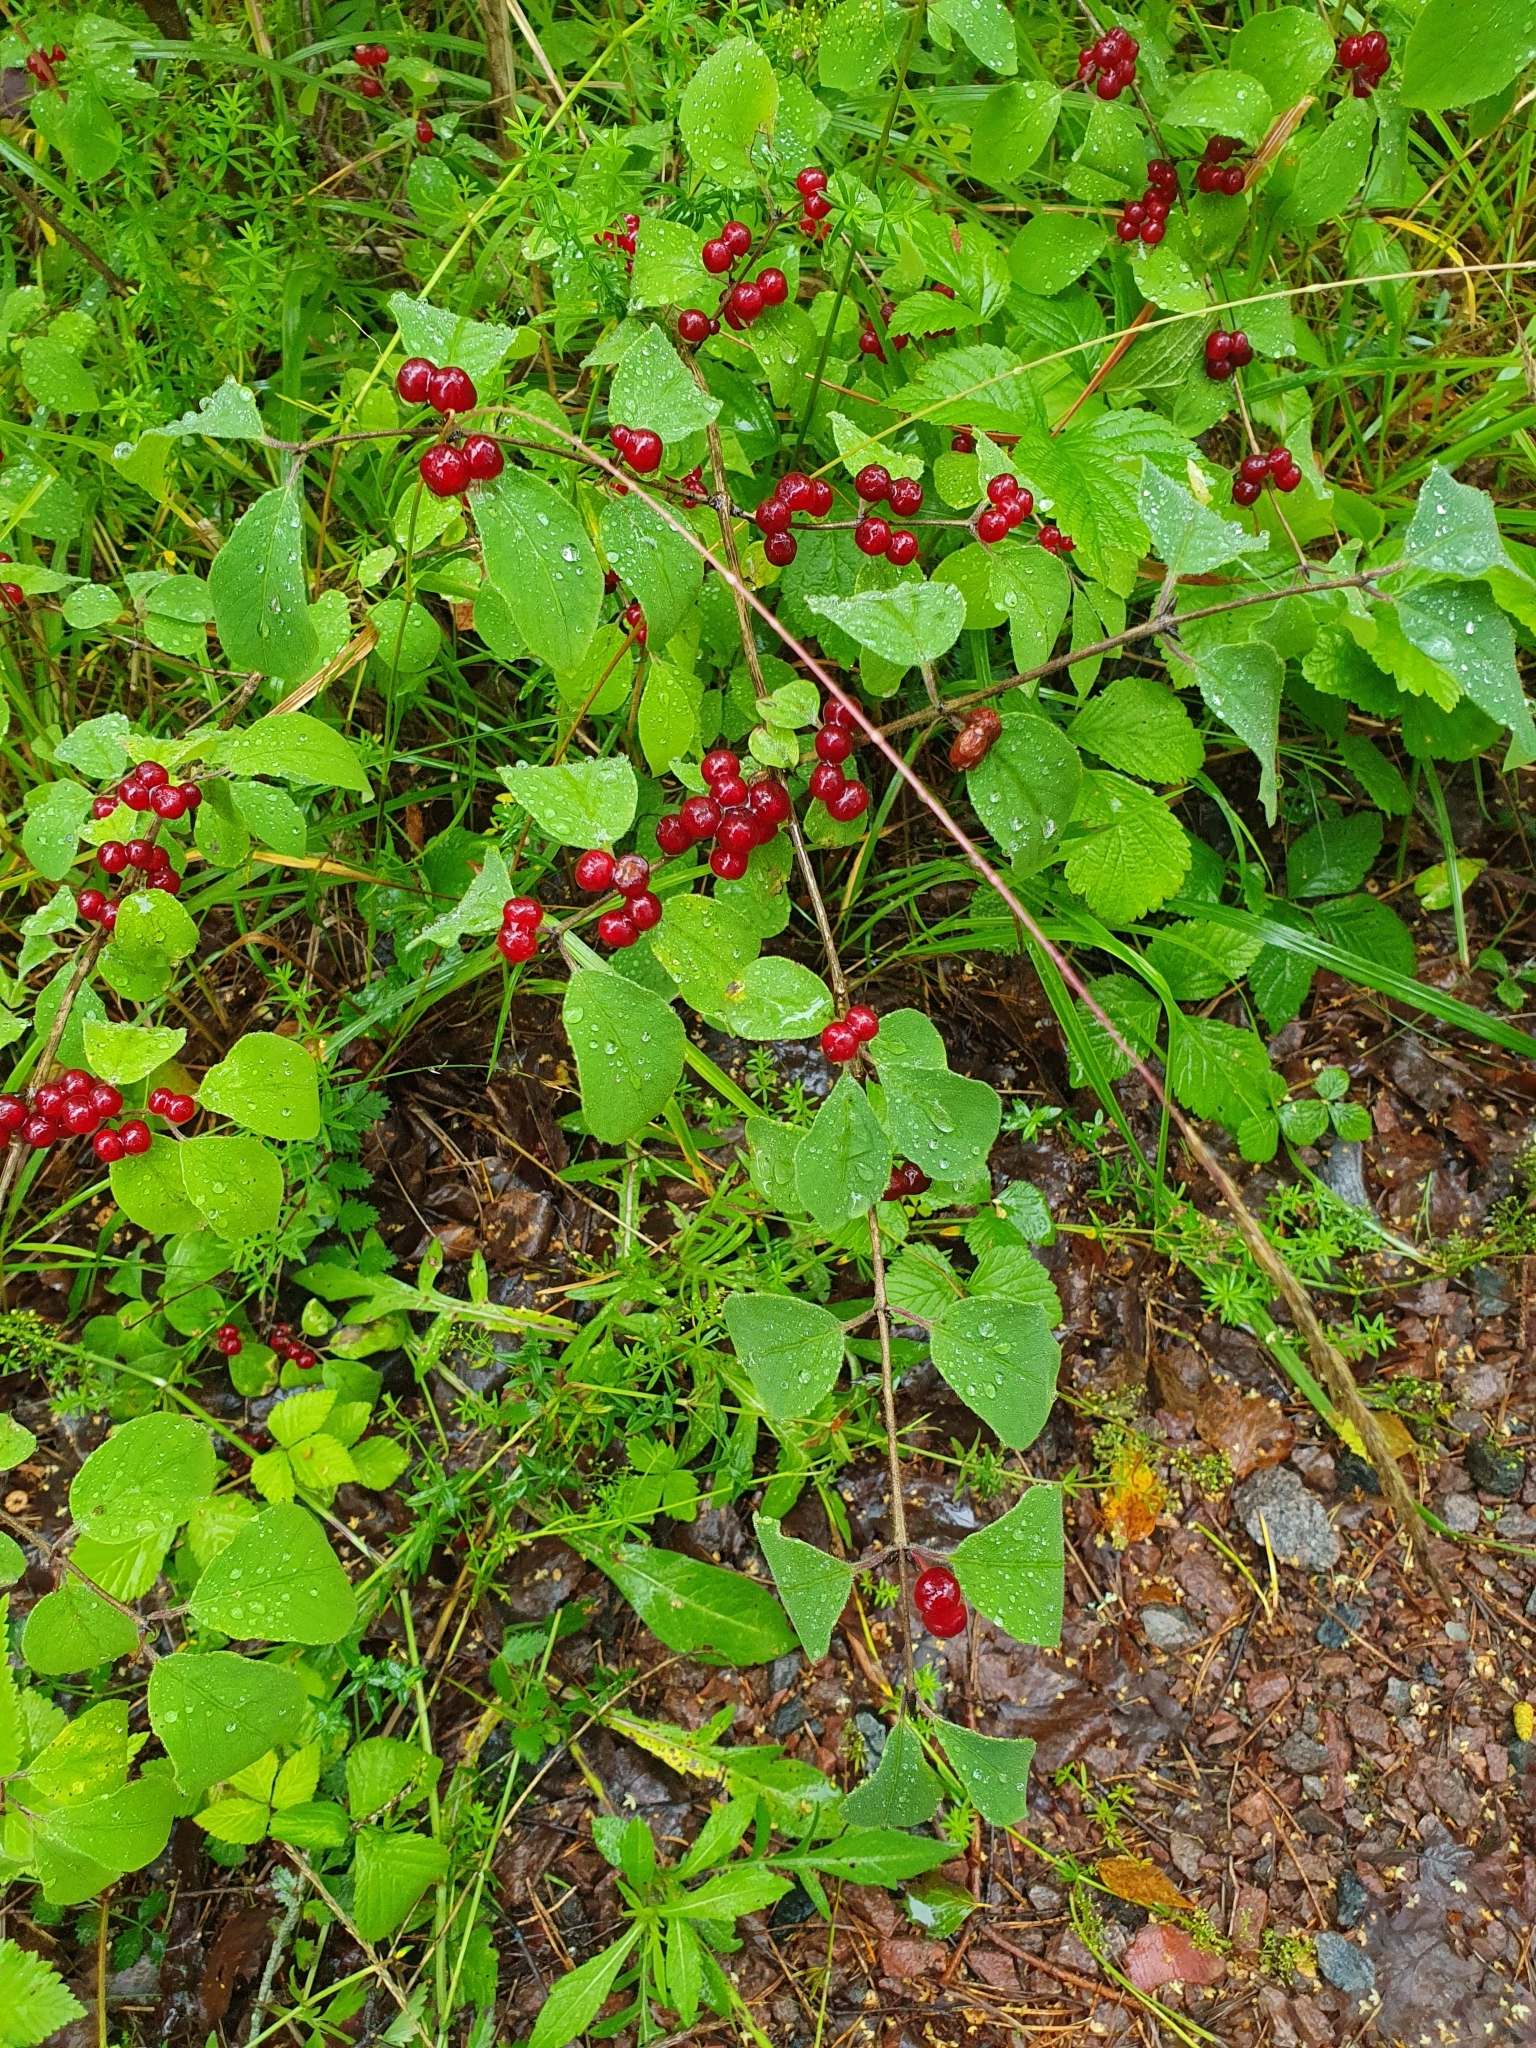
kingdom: Plantae
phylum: Tracheophyta
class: Magnoliopsida
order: Dipsacales
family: Caprifoliaceae
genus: Lonicera
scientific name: Lonicera xylosteum
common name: Fly honeysuckle
